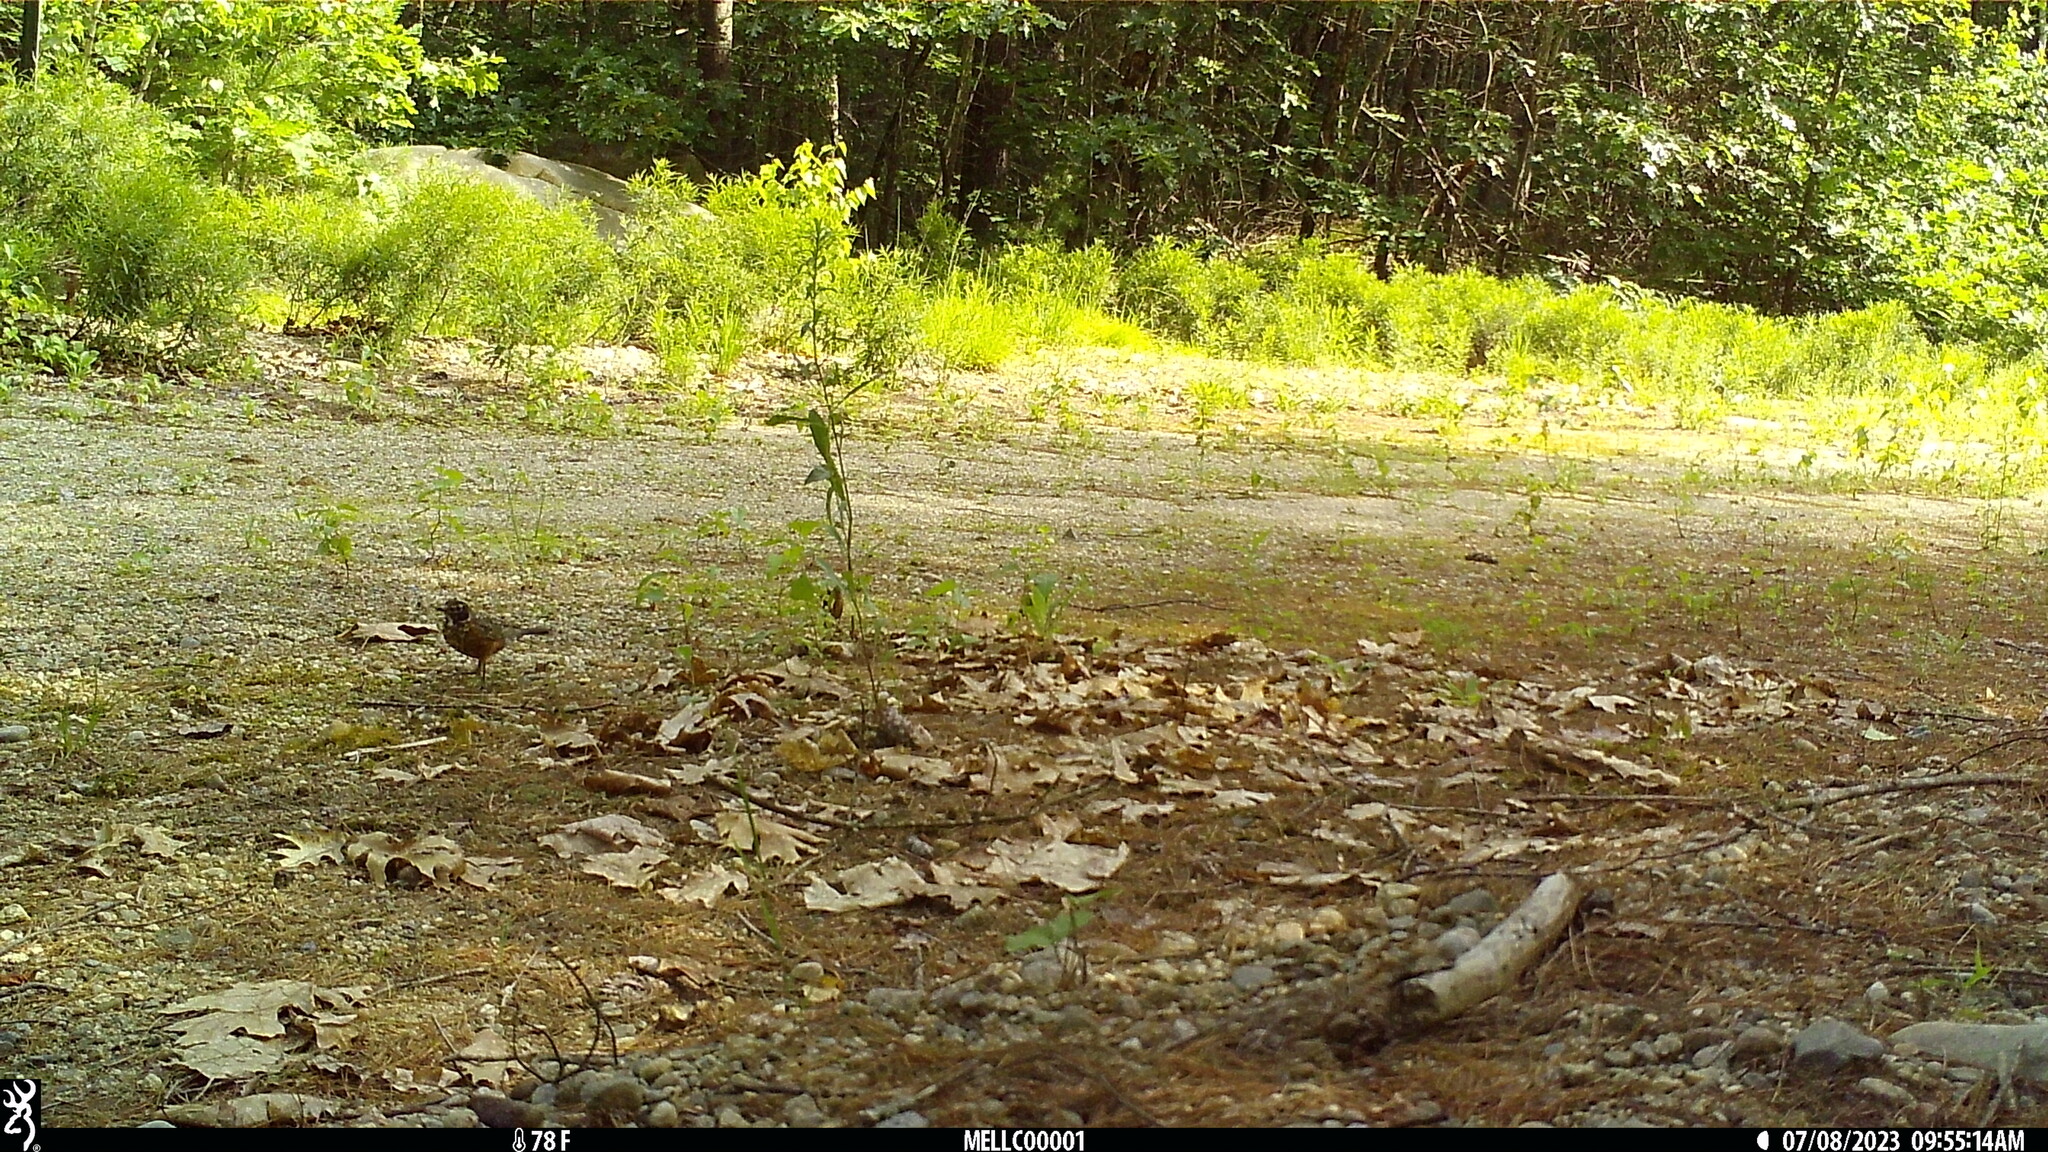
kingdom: Animalia
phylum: Chordata
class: Aves
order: Passeriformes
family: Turdidae
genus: Turdus
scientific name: Turdus migratorius
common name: American robin
